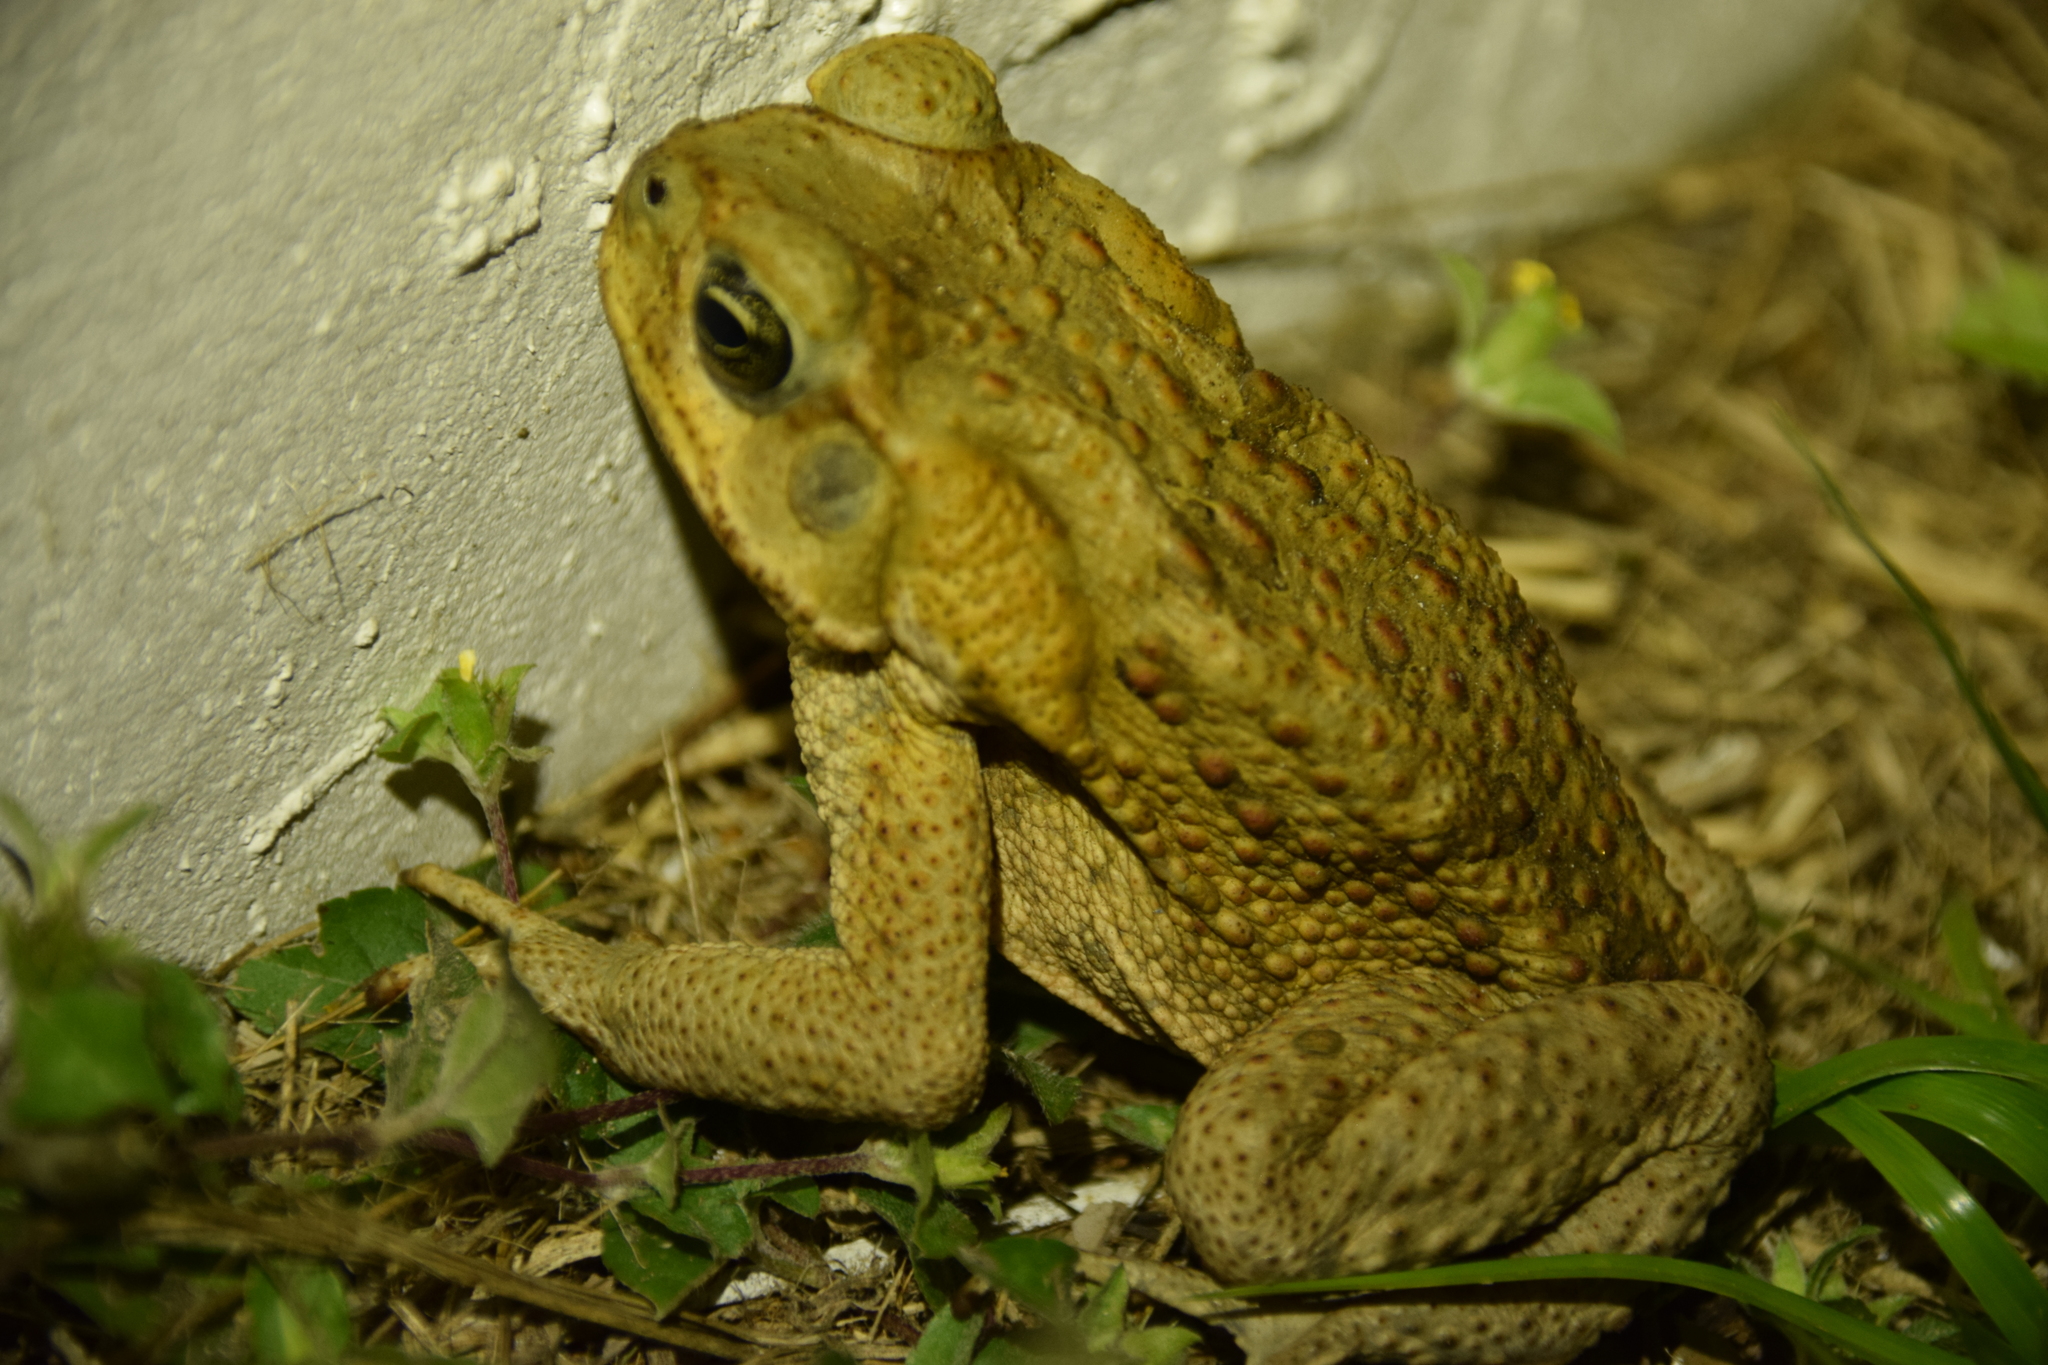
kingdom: Animalia
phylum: Chordata
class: Amphibia
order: Anura
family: Bufonidae
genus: Rhinella
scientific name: Rhinella marina
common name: Cane toad
